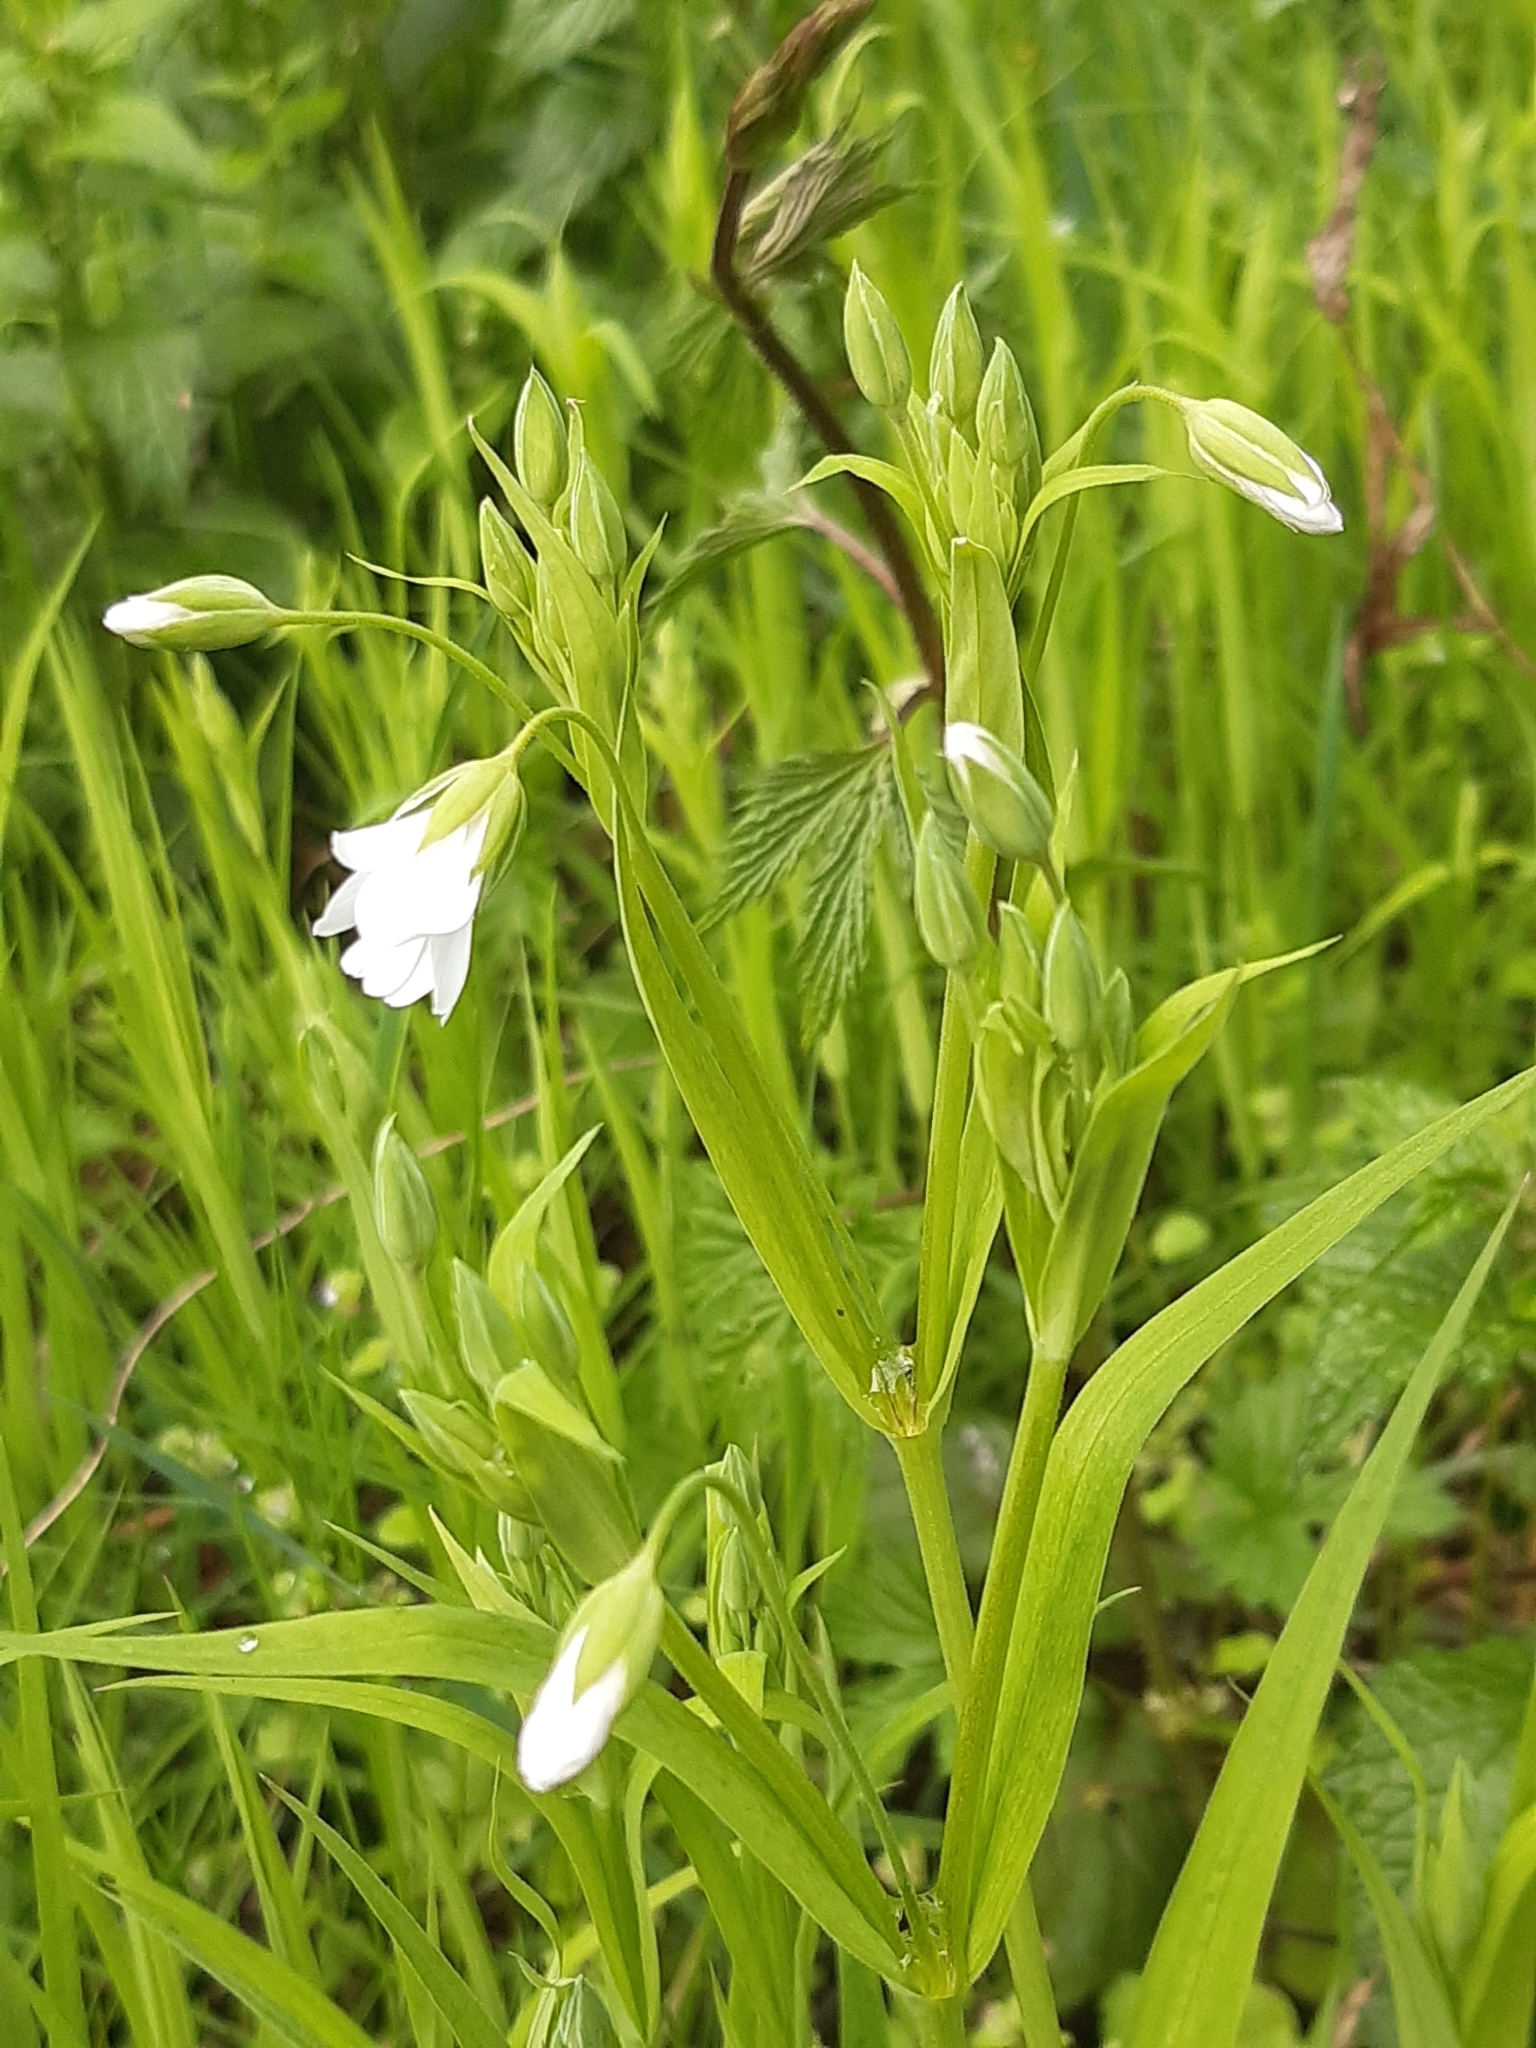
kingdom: Plantae
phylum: Tracheophyta
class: Magnoliopsida
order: Caryophyllales
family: Caryophyllaceae
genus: Rabelera
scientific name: Rabelera holostea
